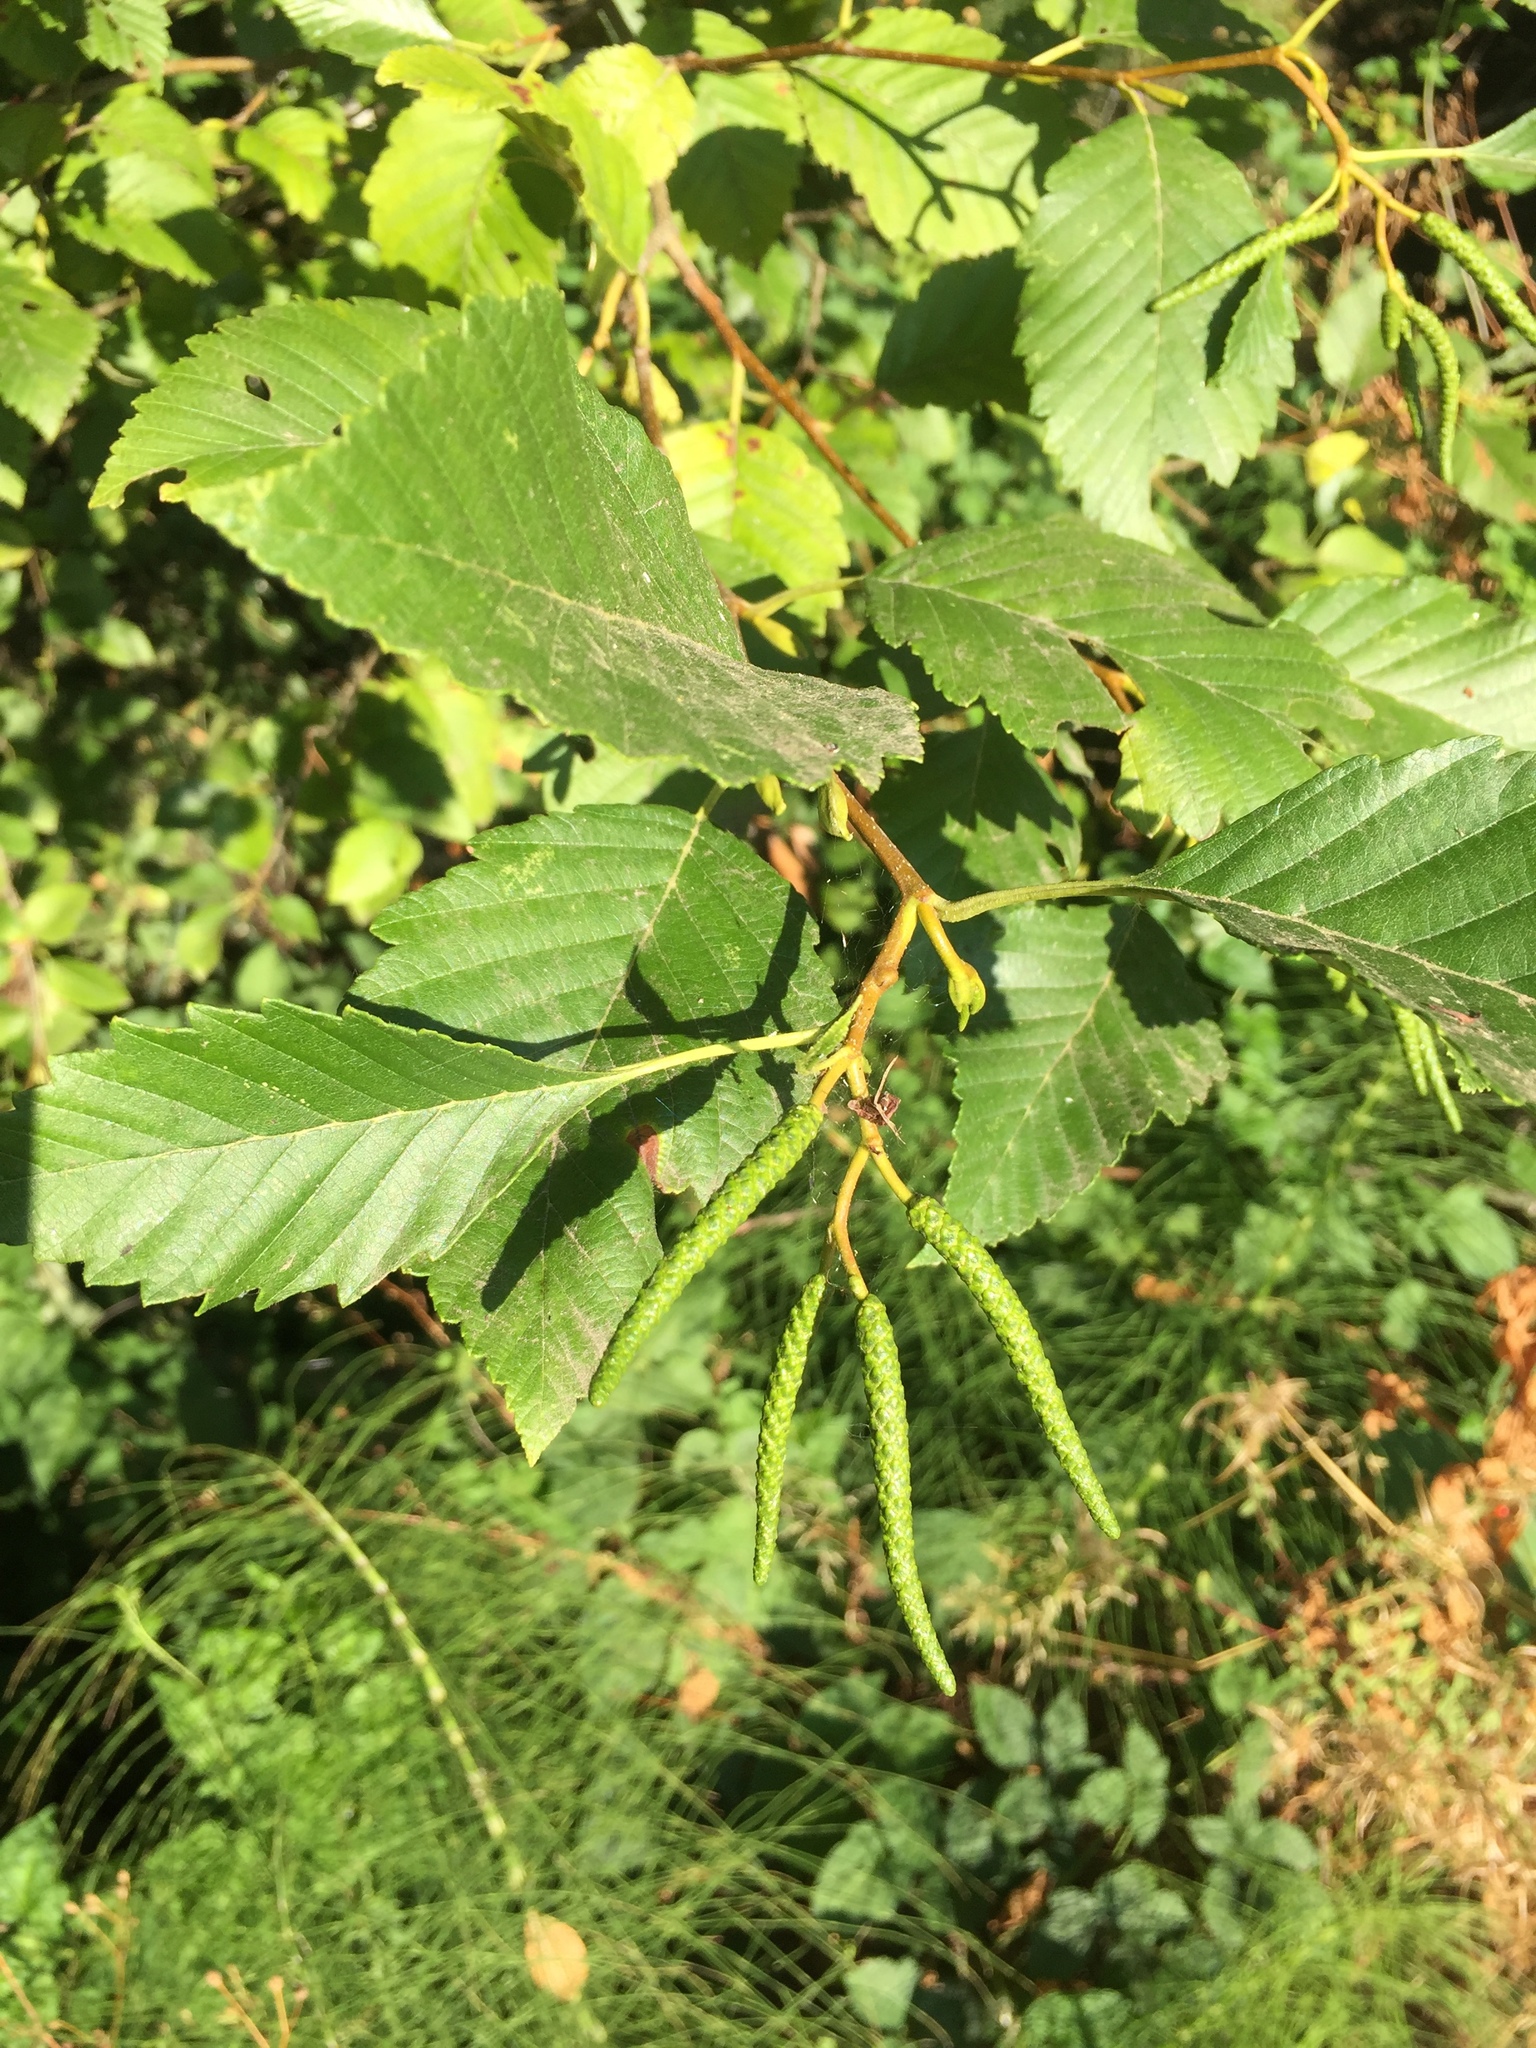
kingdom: Plantae
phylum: Tracheophyta
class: Magnoliopsida
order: Fagales
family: Betulaceae
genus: Alnus
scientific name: Alnus rubra
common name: Red alder
